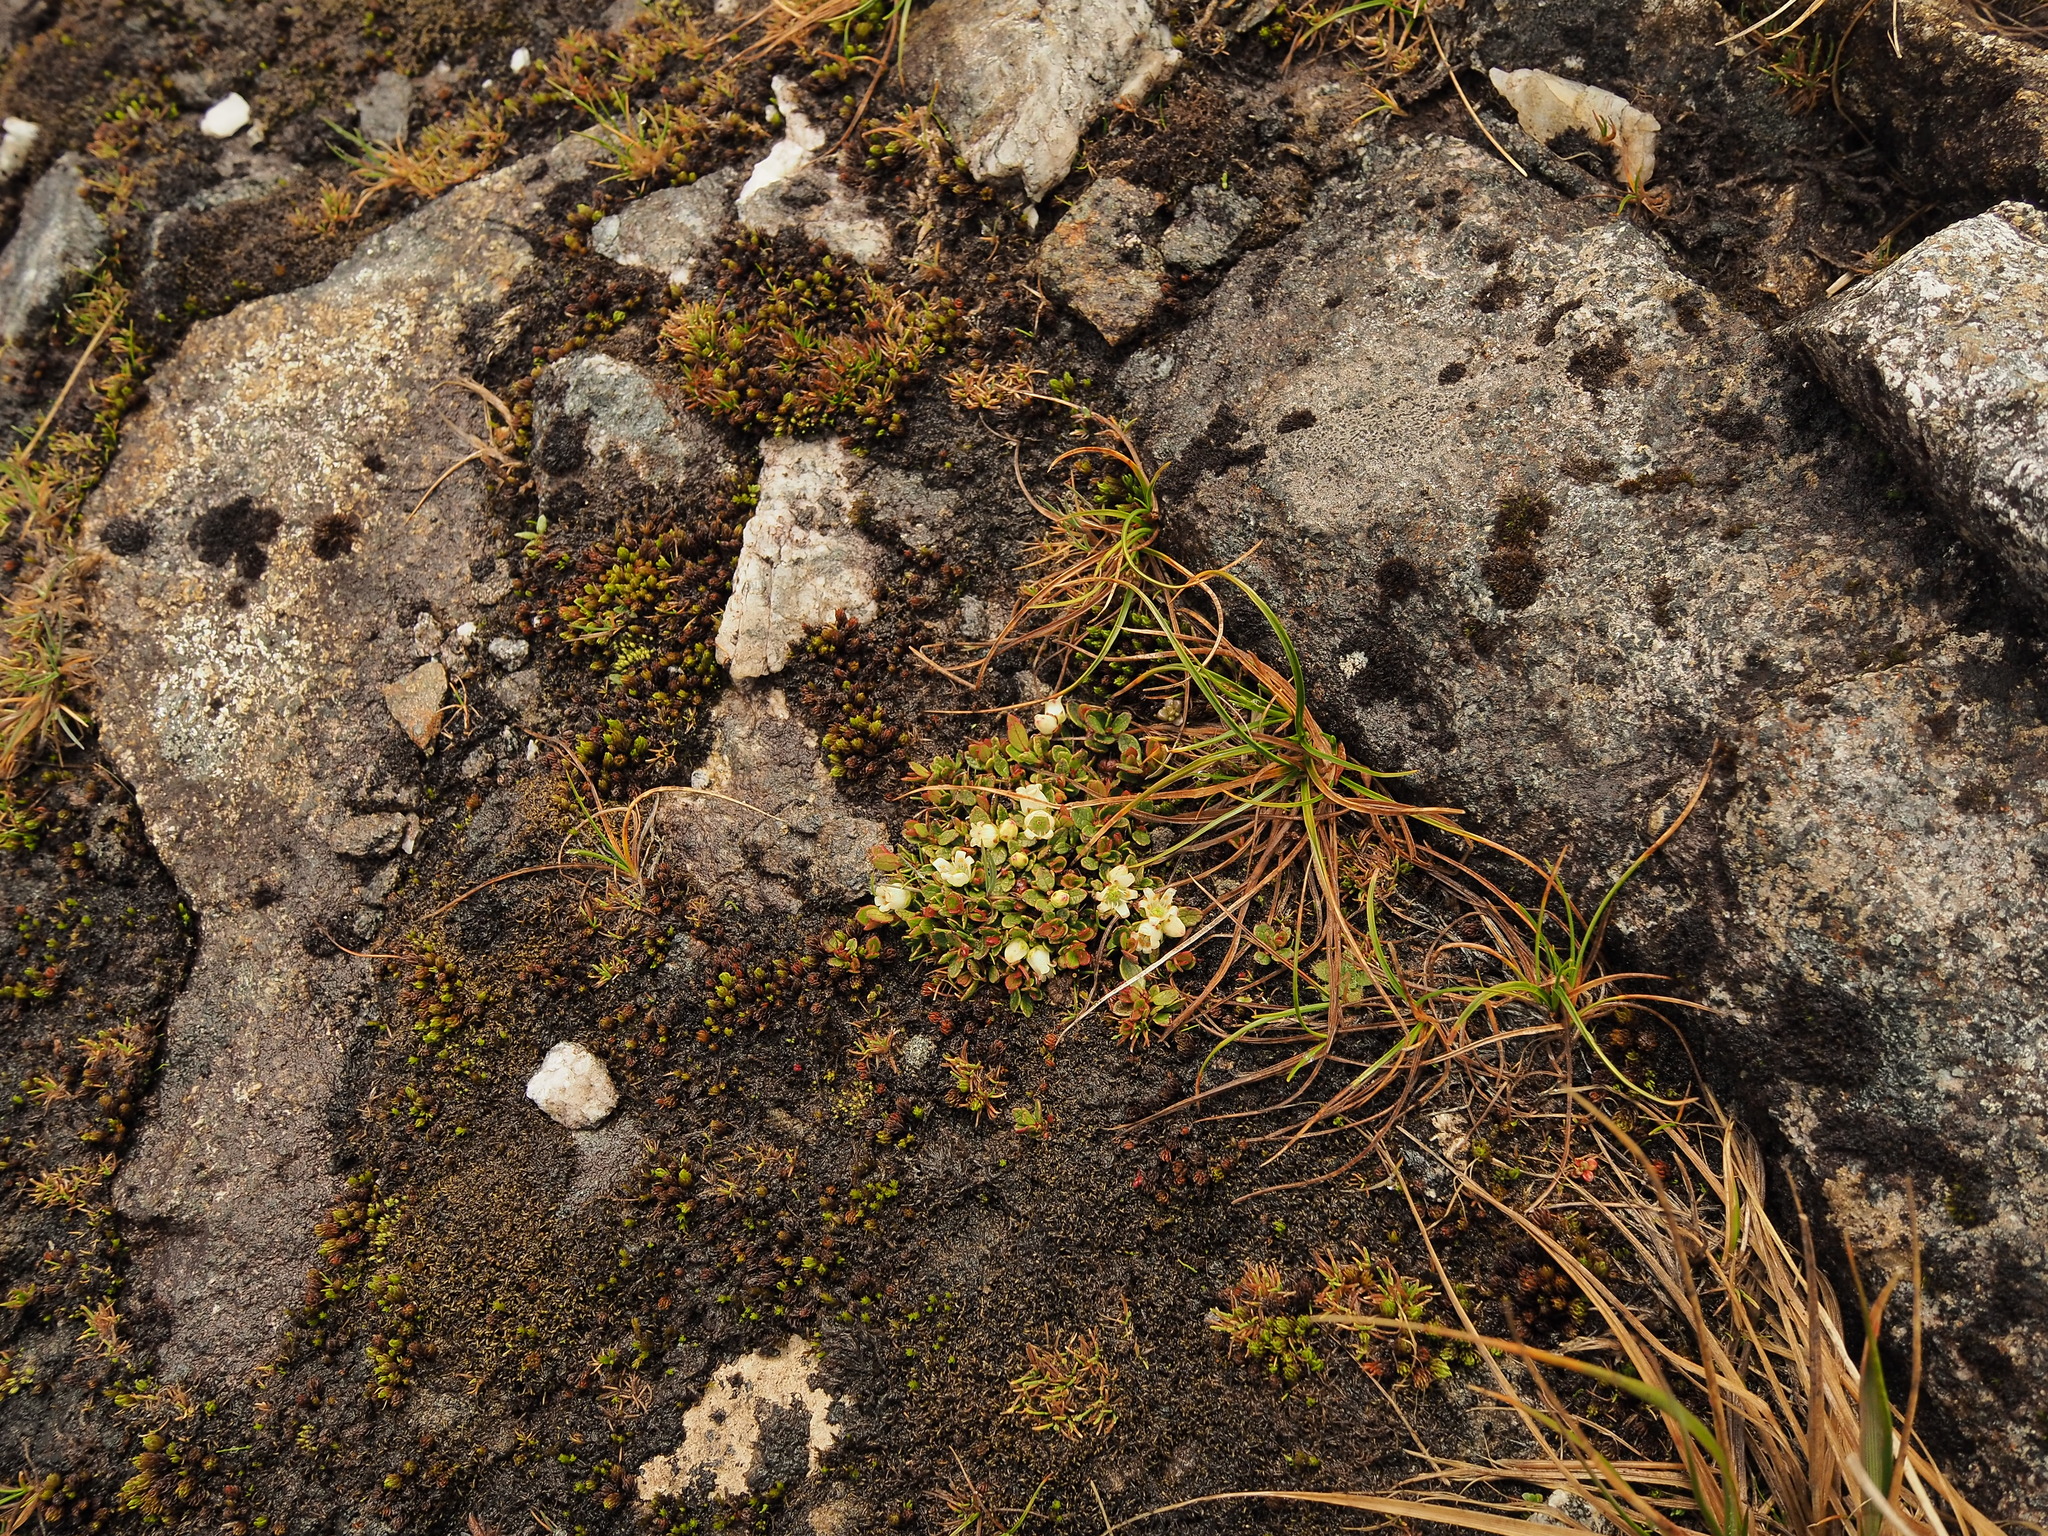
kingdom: Plantae
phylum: Tracheophyta
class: Magnoliopsida
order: Ericales
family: Ericaceae
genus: Gaultheria
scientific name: Gaultheria nubicola
